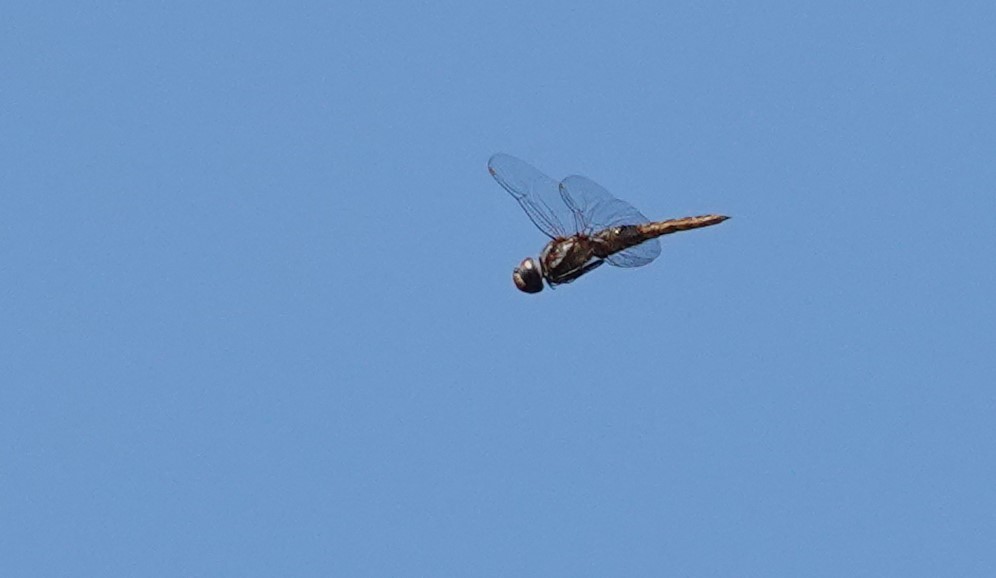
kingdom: Animalia
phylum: Arthropoda
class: Insecta
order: Odonata
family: Libellulidae
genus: Pantala
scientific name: Pantala hymenaea
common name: Spot-winged glider
